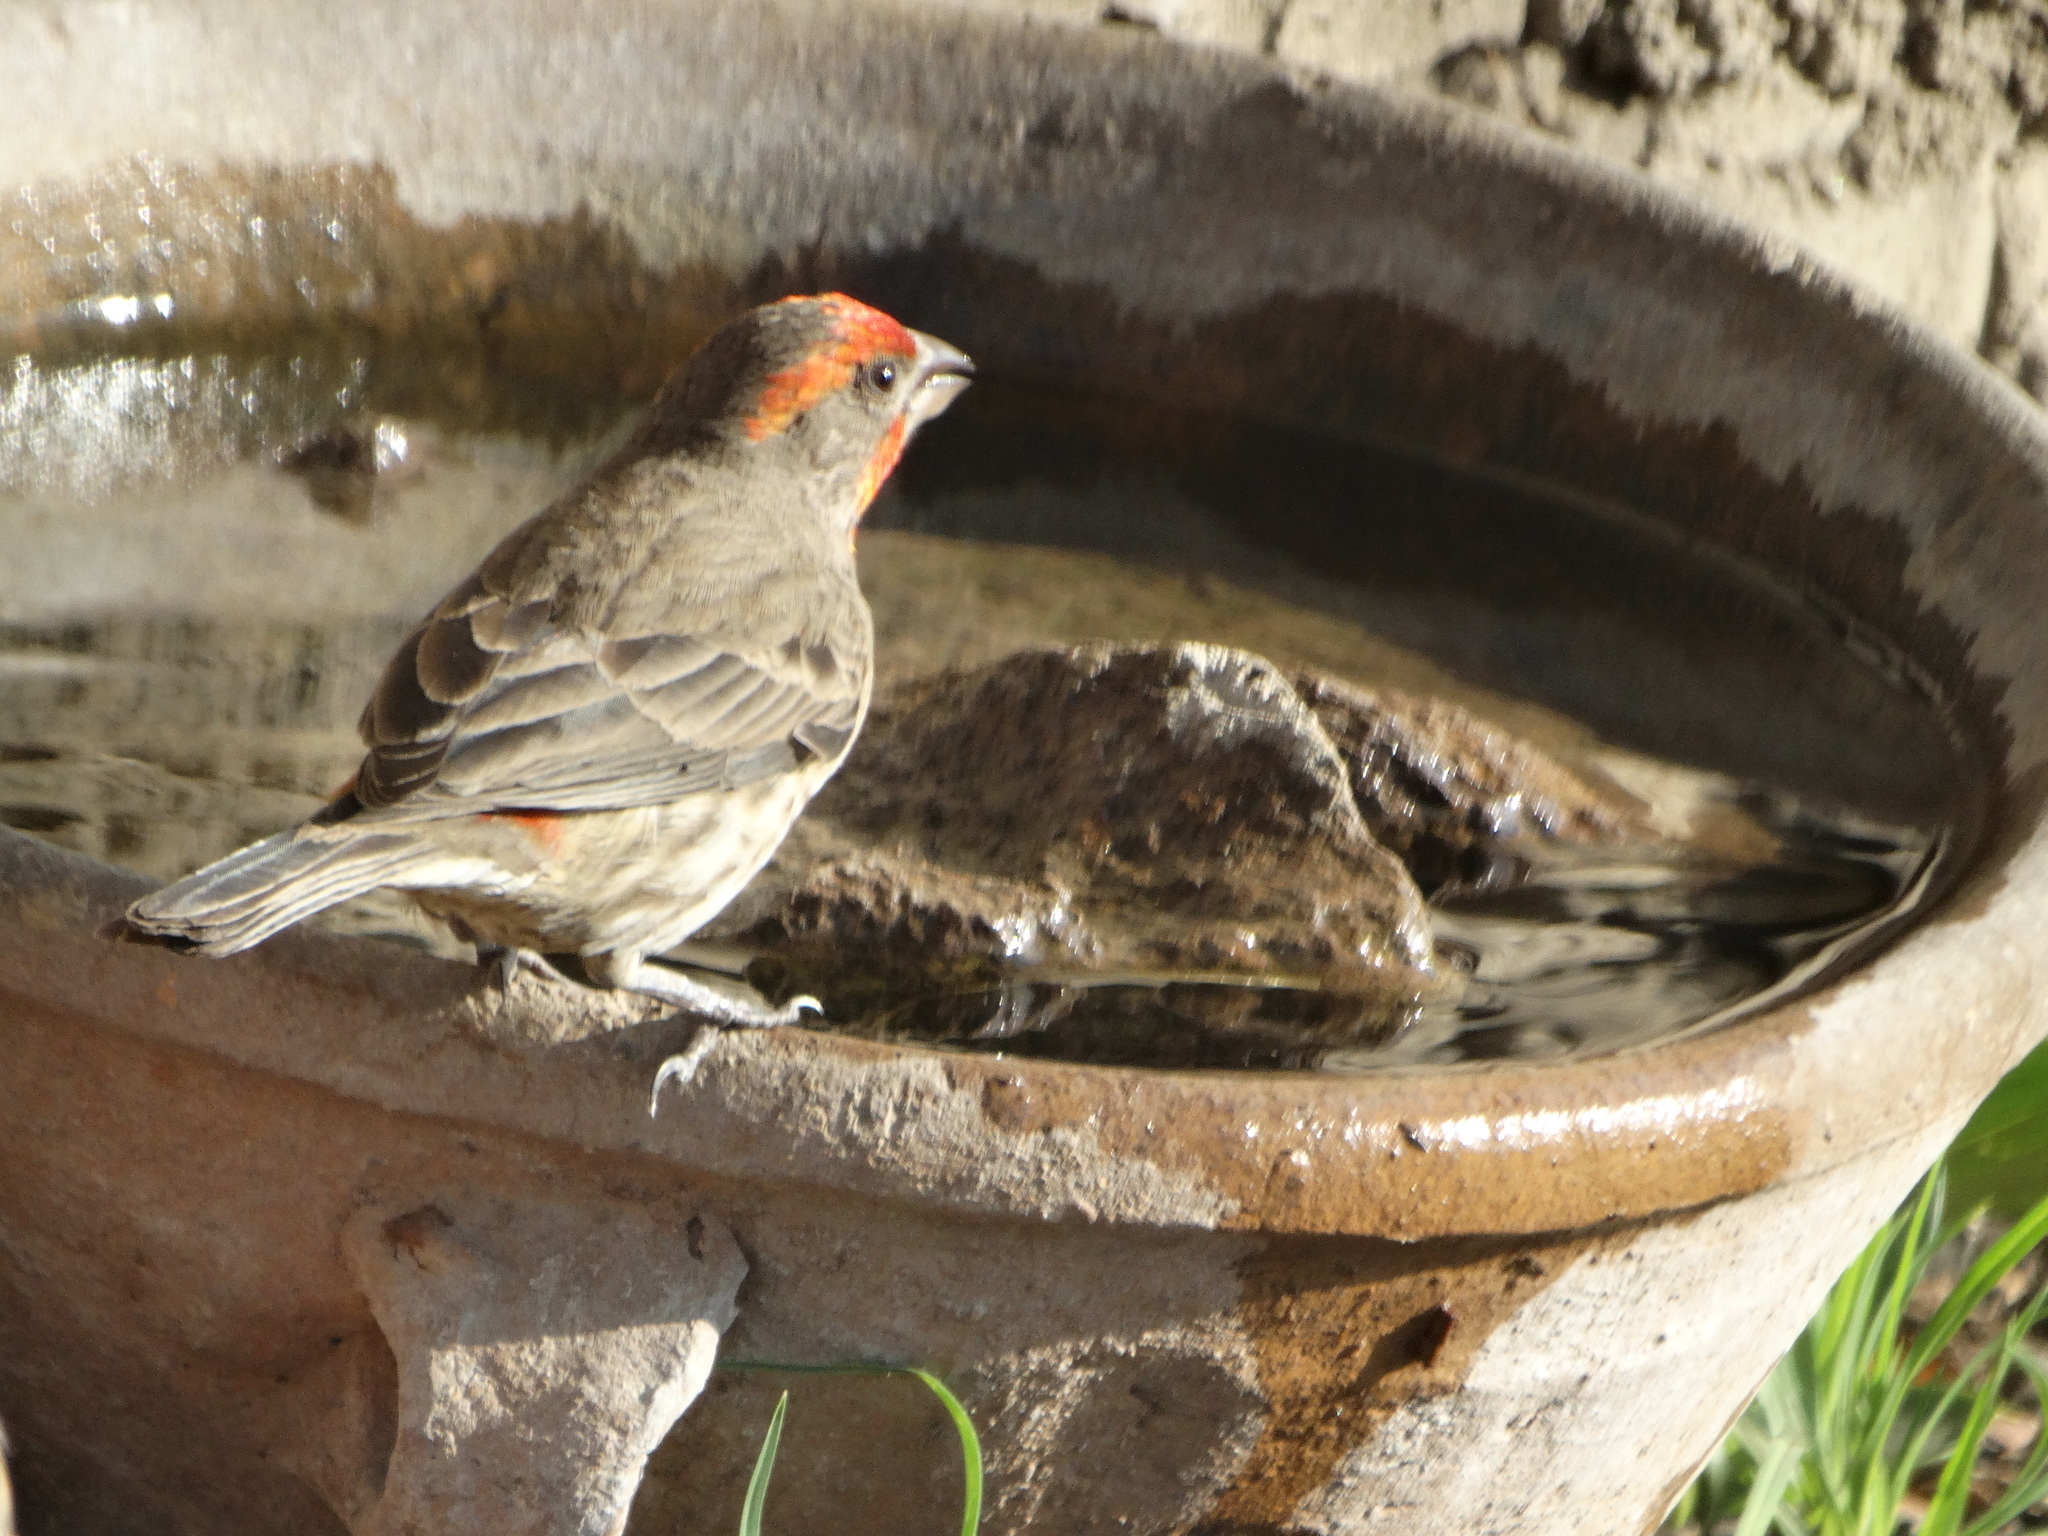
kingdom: Animalia
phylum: Chordata
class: Aves
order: Passeriformes
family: Fringillidae
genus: Haemorhous
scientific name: Haemorhous mexicanus
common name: House finch
